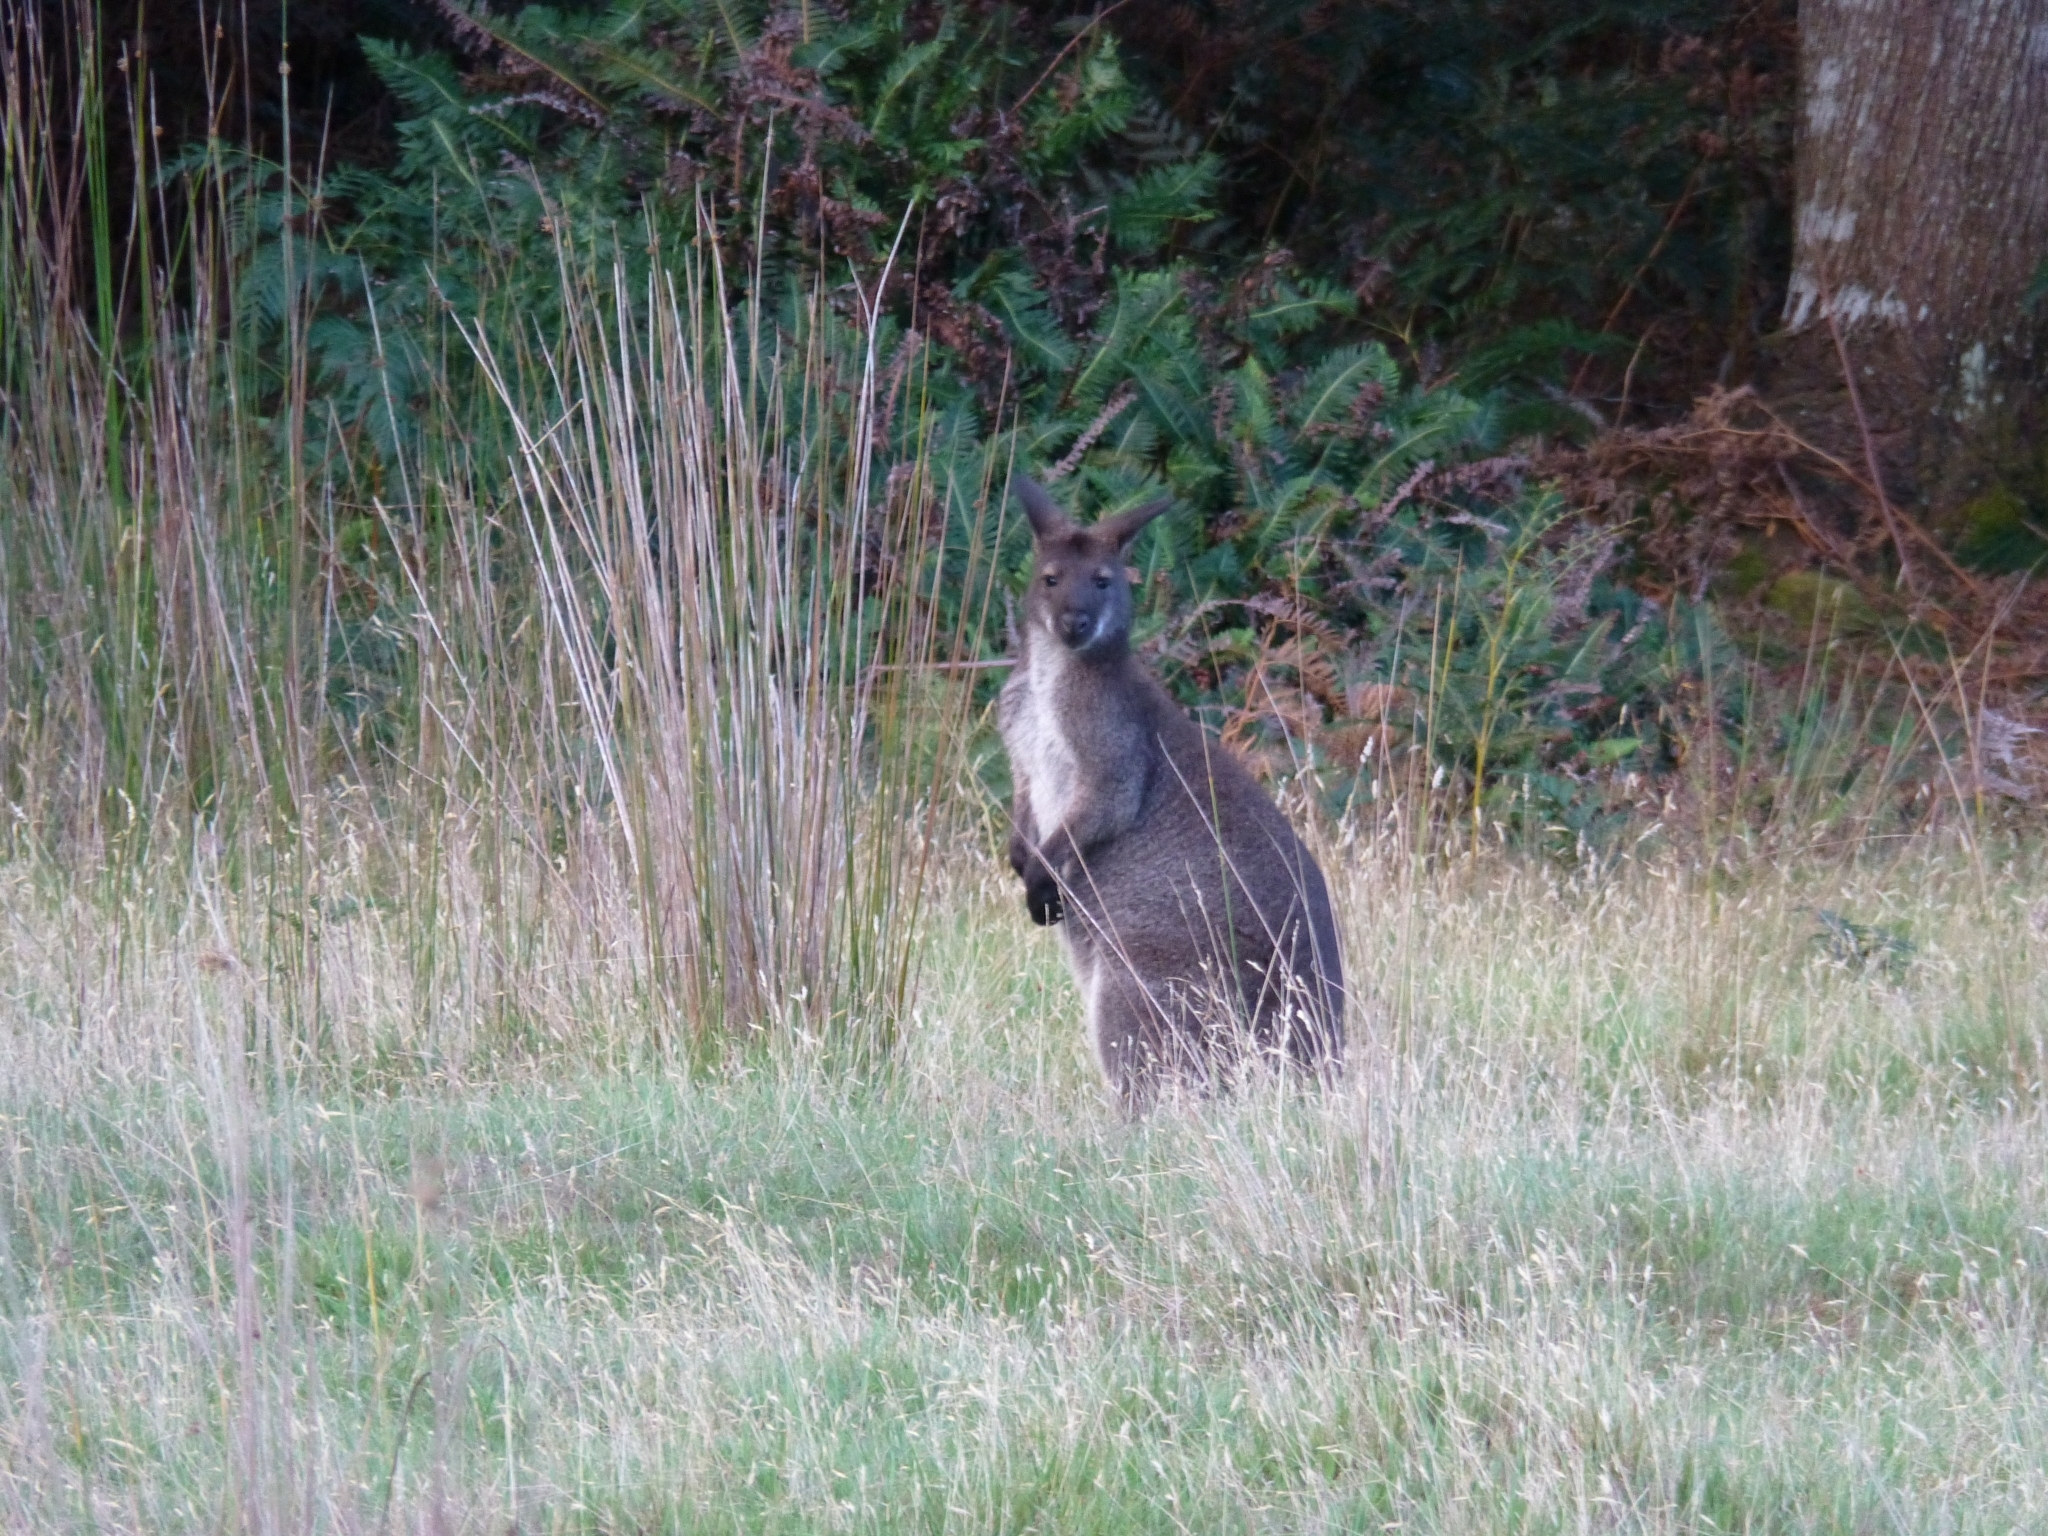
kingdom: Animalia
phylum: Chordata
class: Mammalia
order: Diprotodontia
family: Macropodidae
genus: Notamacropus
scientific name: Notamacropus rufogriseus
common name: Red-necked wallaby
